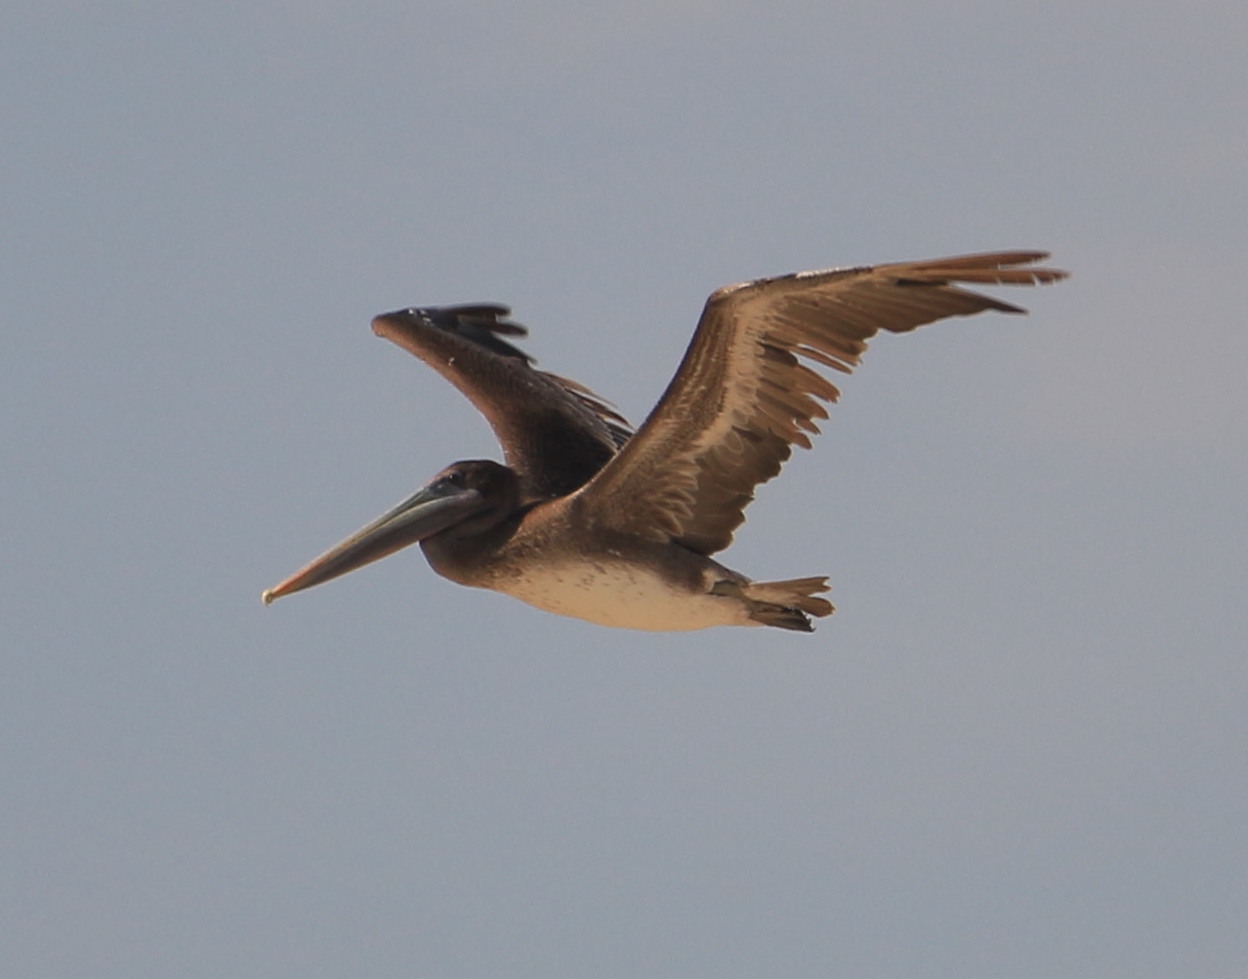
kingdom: Animalia
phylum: Chordata
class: Aves
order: Pelecaniformes
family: Pelecanidae
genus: Pelecanus
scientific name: Pelecanus occidentalis
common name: Brown pelican
